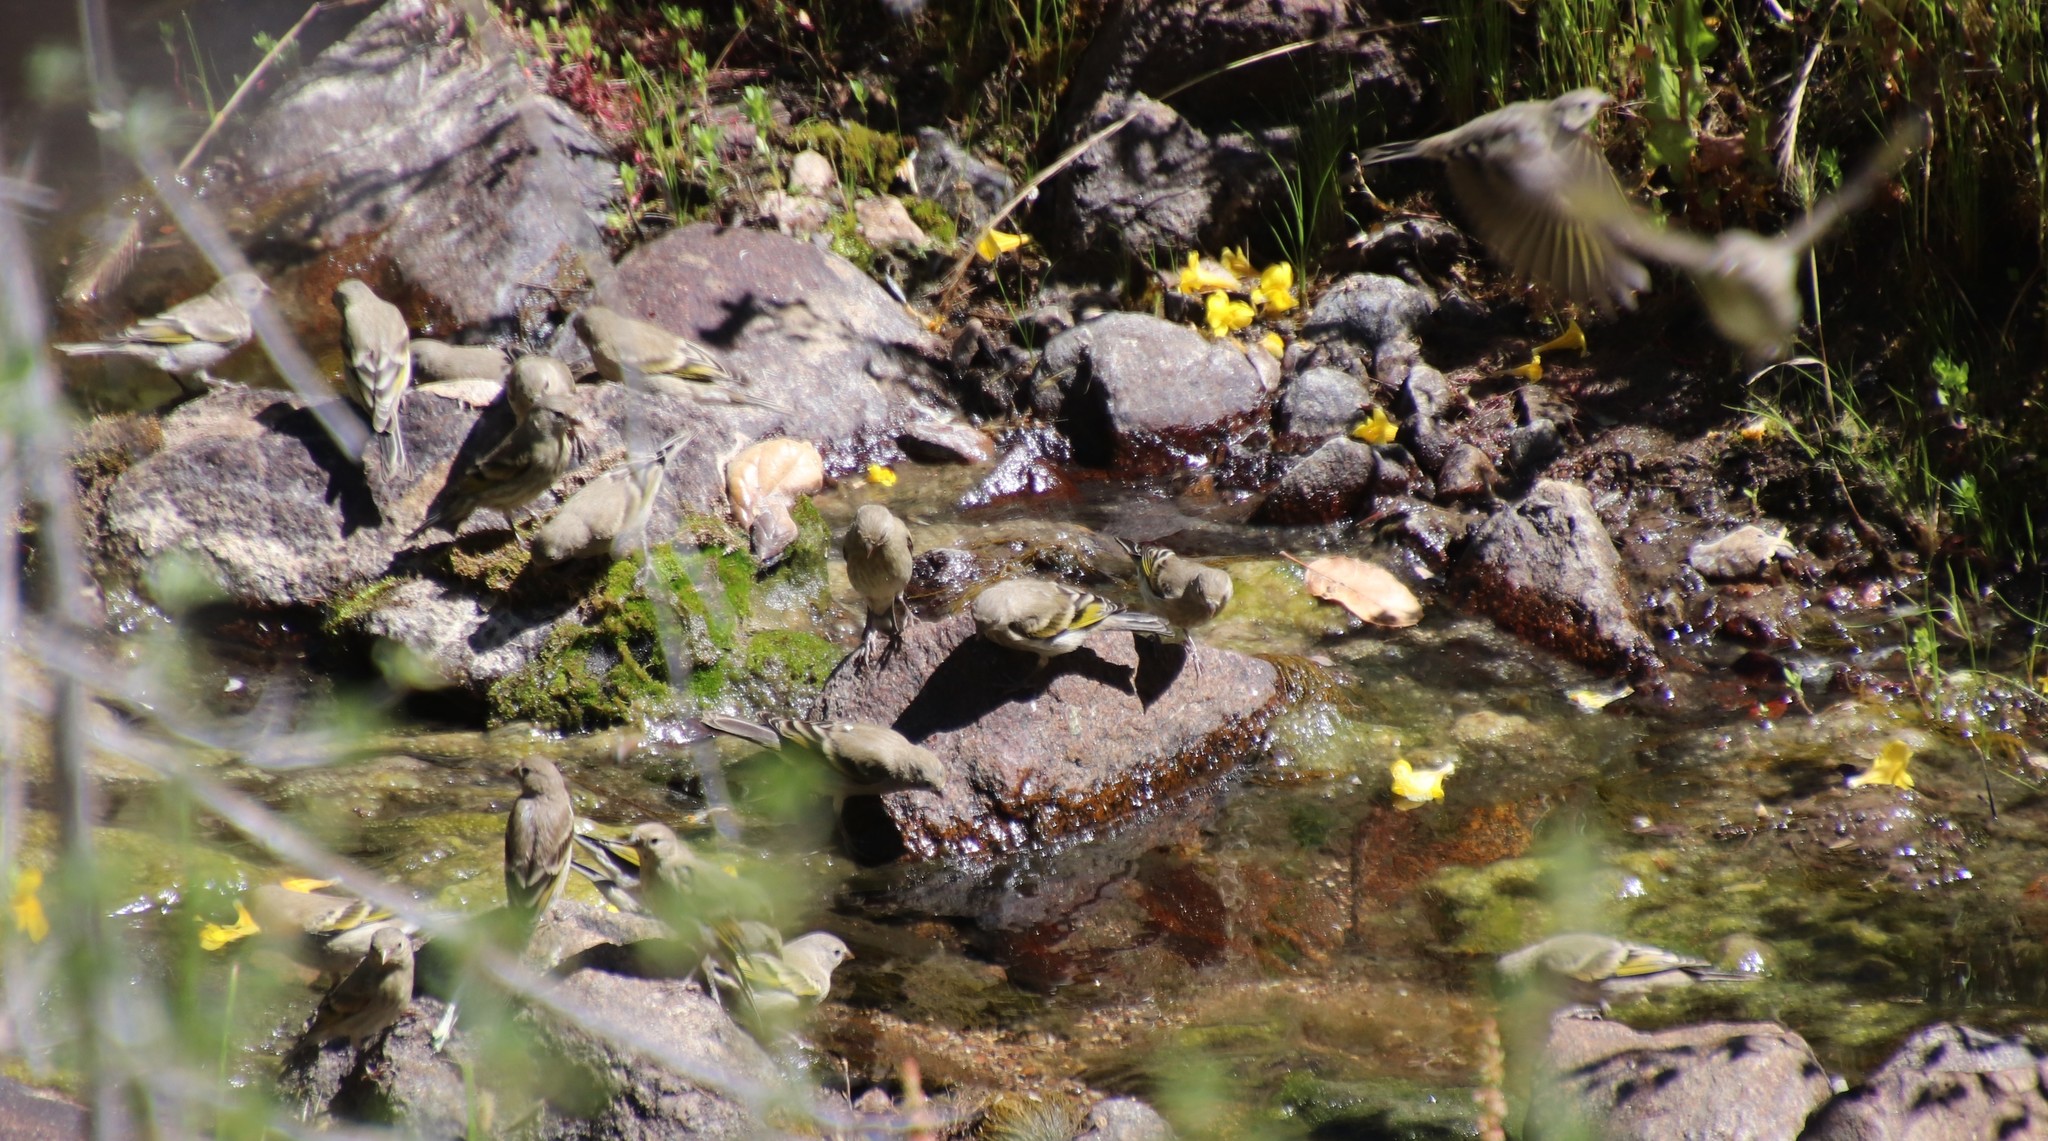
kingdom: Animalia
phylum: Chordata
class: Aves
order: Passeriformes
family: Fringillidae
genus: Spinus
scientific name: Spinus lawrencei
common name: Lawrence's goldfinch
